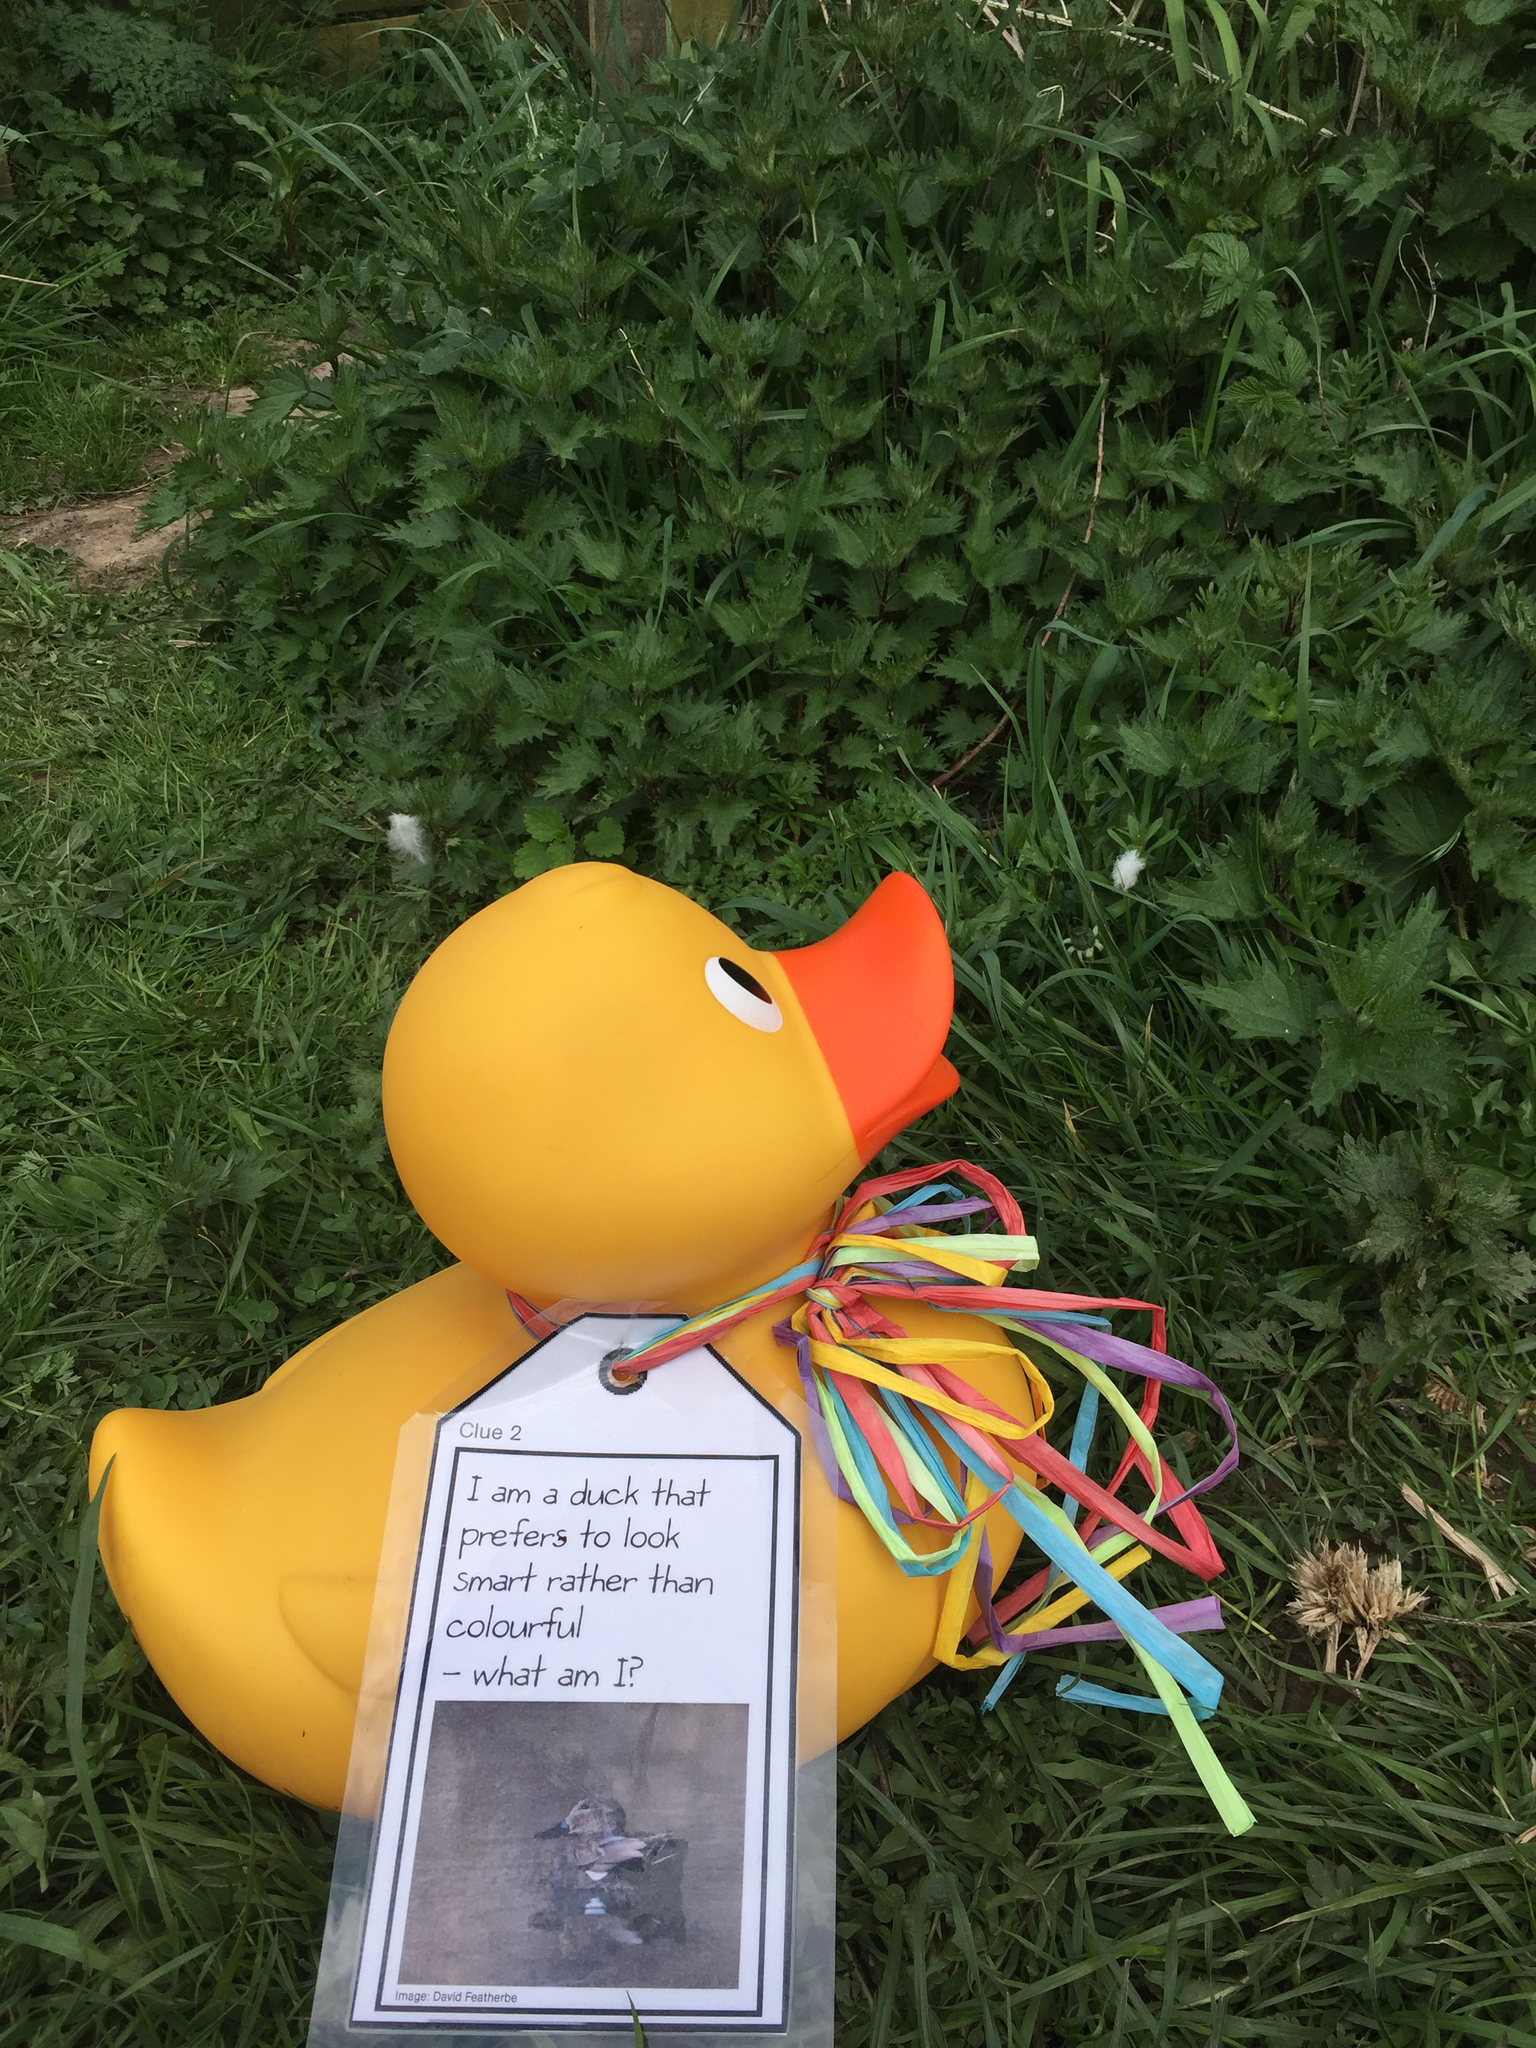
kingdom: Plantae
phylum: Tracheophyta
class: Magnoliopsida
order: Rosales
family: Urticaceae
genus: Urtica
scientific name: Urtica dioica
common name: Common nettle
